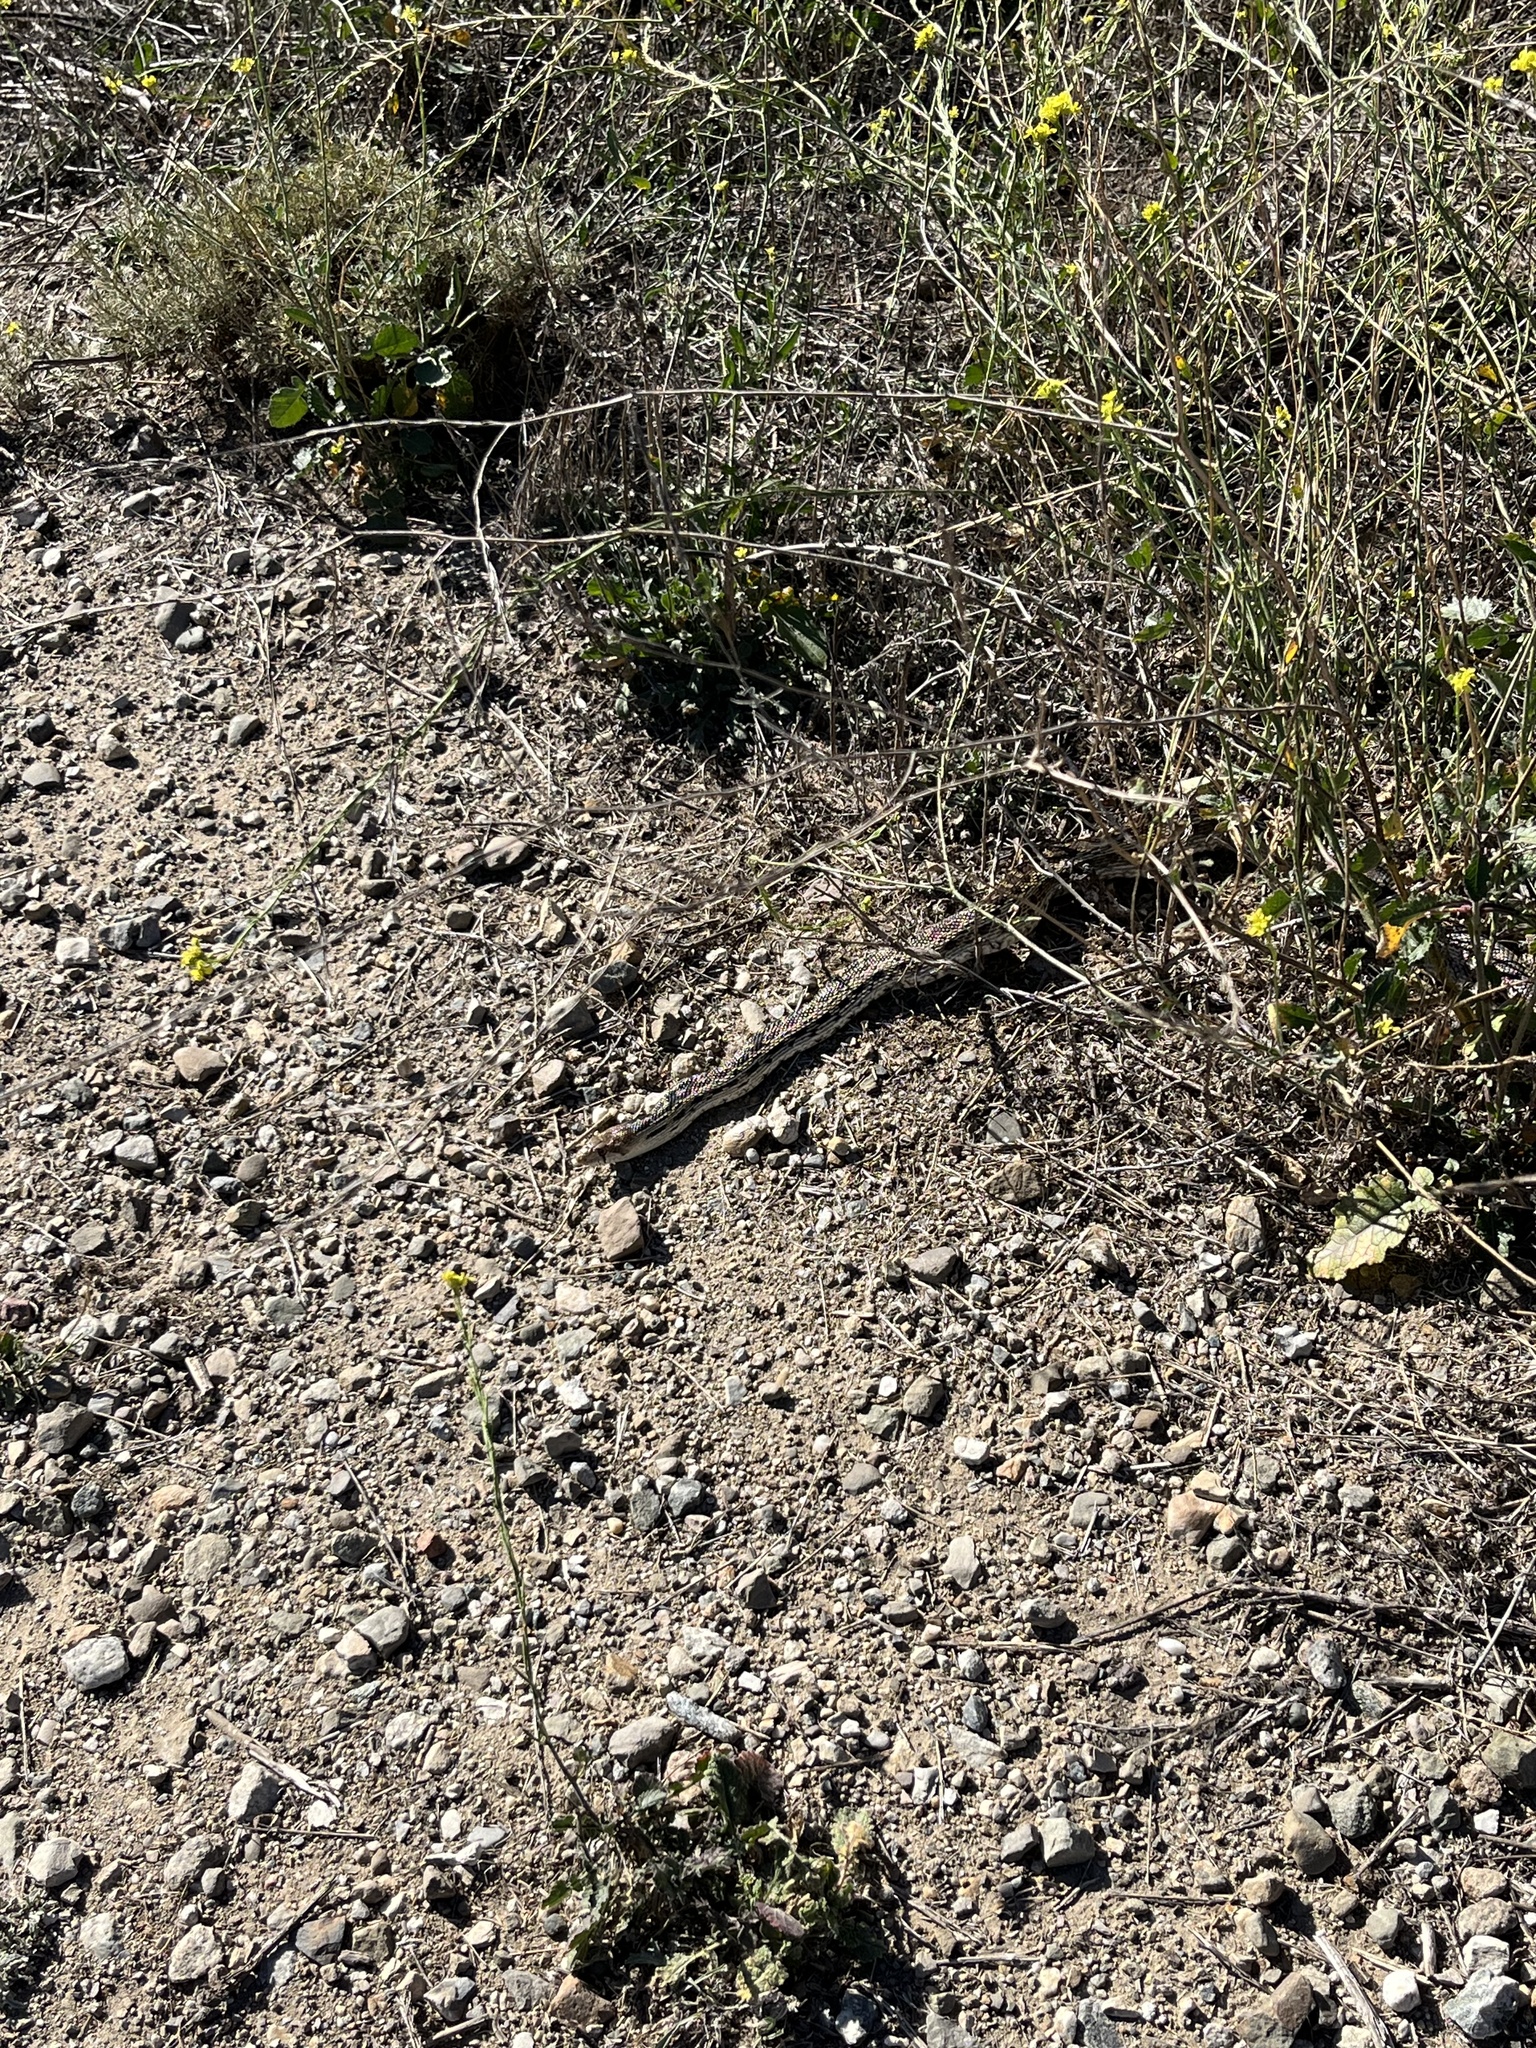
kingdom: Animalia
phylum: Chordata
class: Squamata
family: Colubridae
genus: Pituophis
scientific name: Pituophis catenifer
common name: Gopher snake
